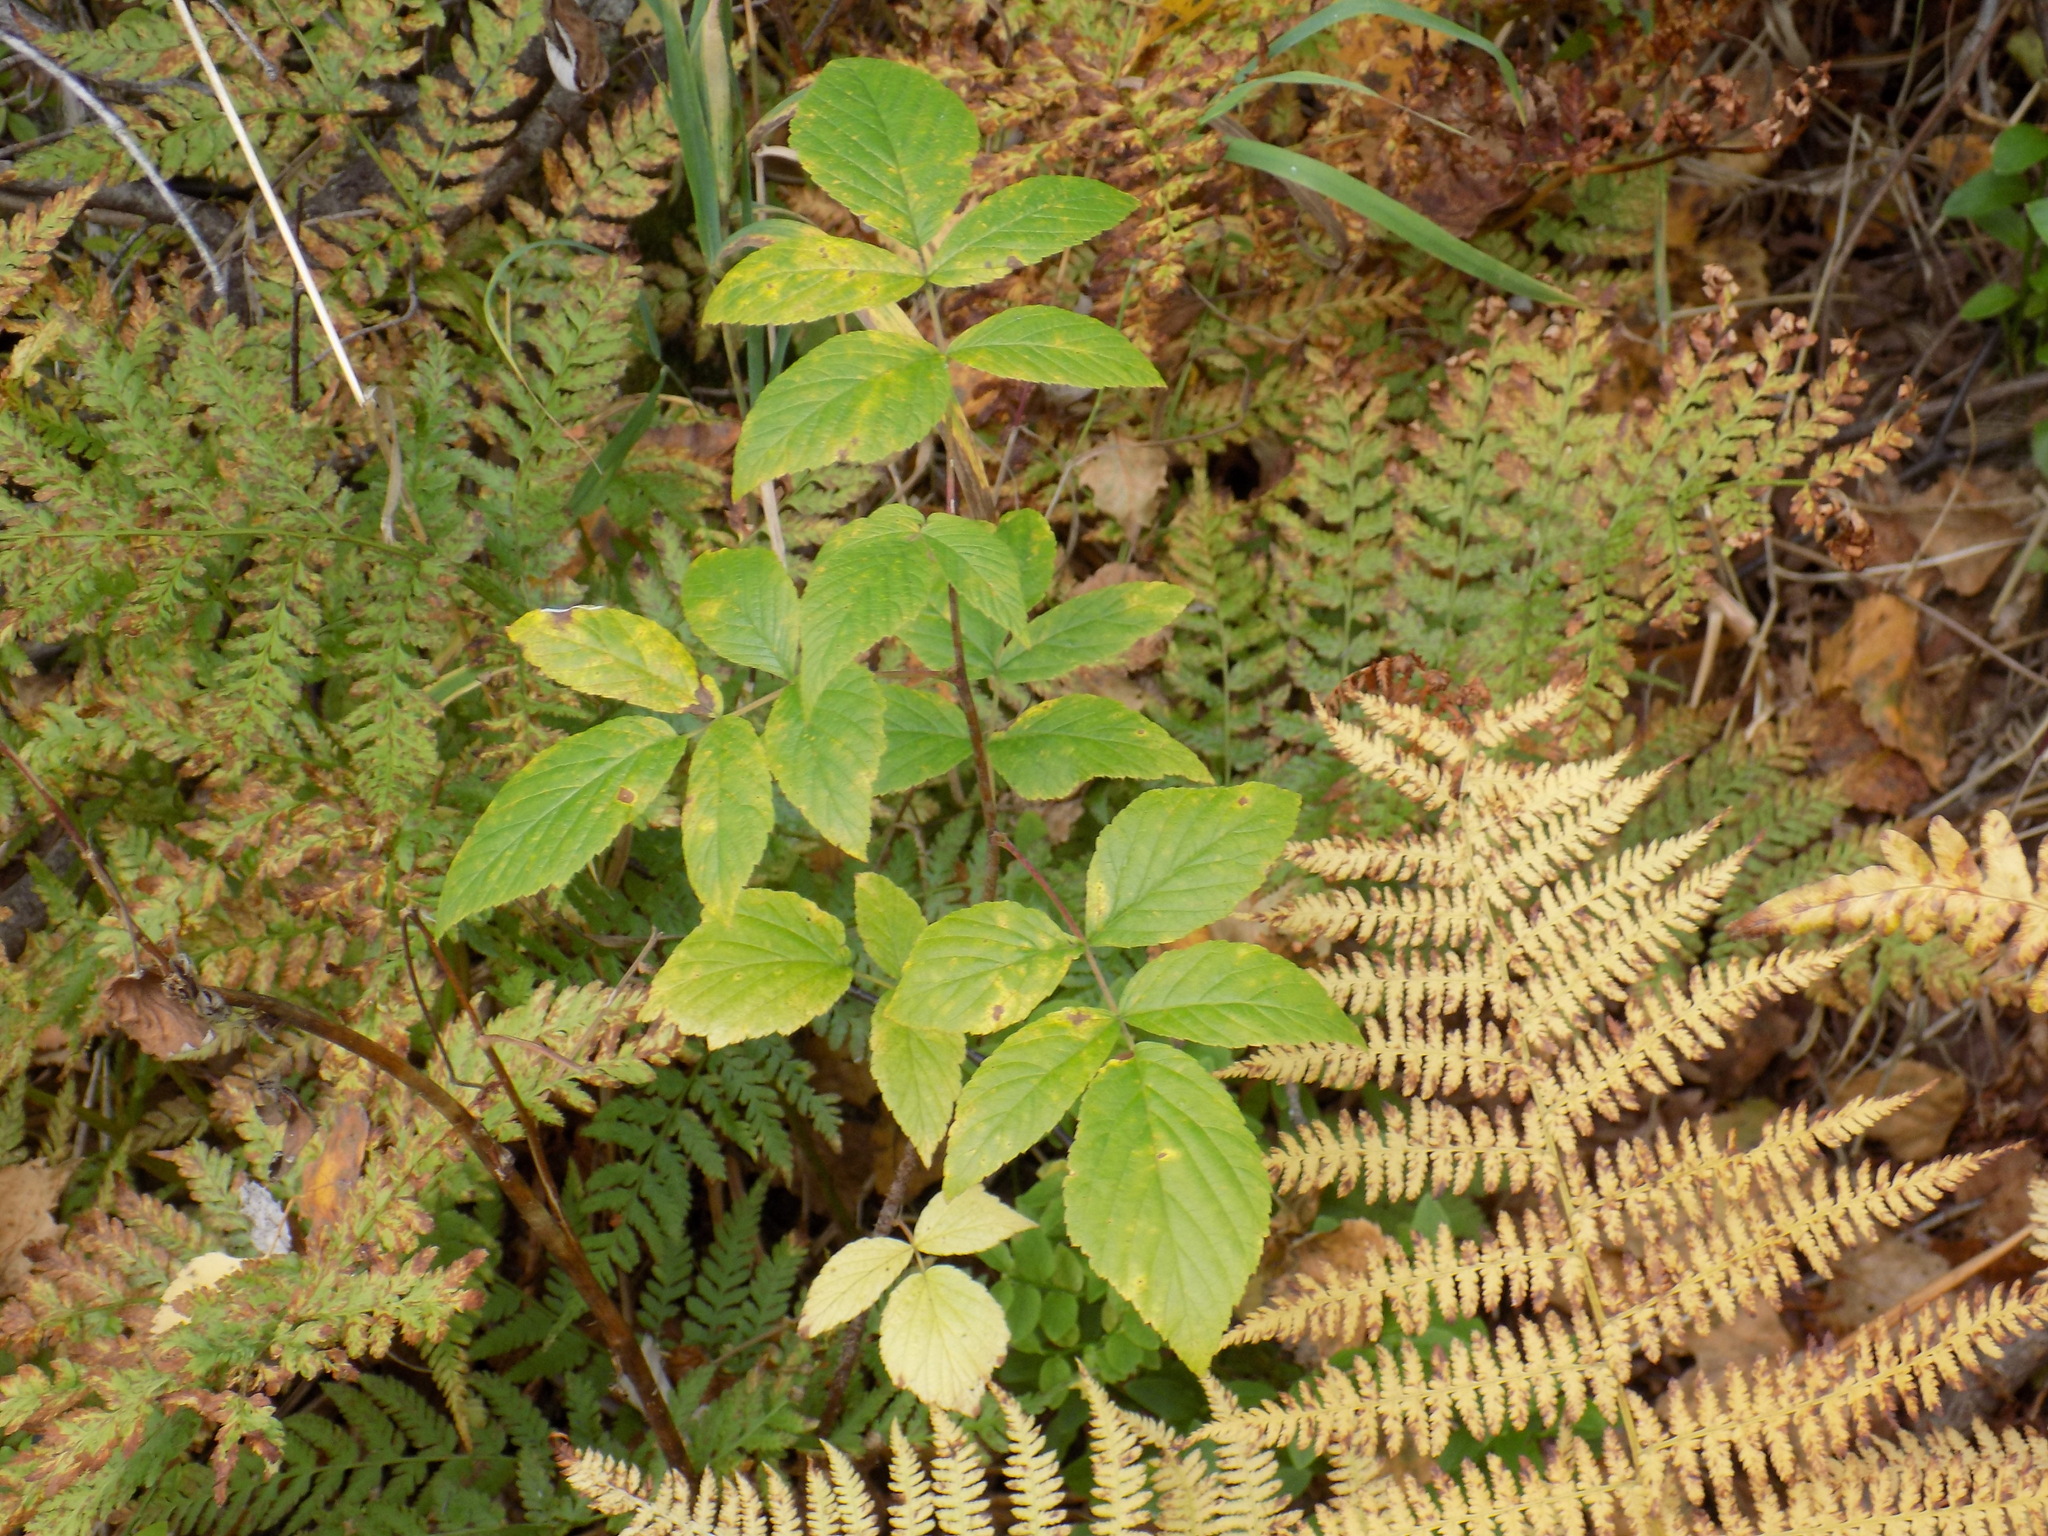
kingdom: Plantae
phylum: Tracheophyta
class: Magnoliopsida
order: Rosales
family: Rosaceae
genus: Rubus
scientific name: Rubus idaeus
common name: Raspberry
